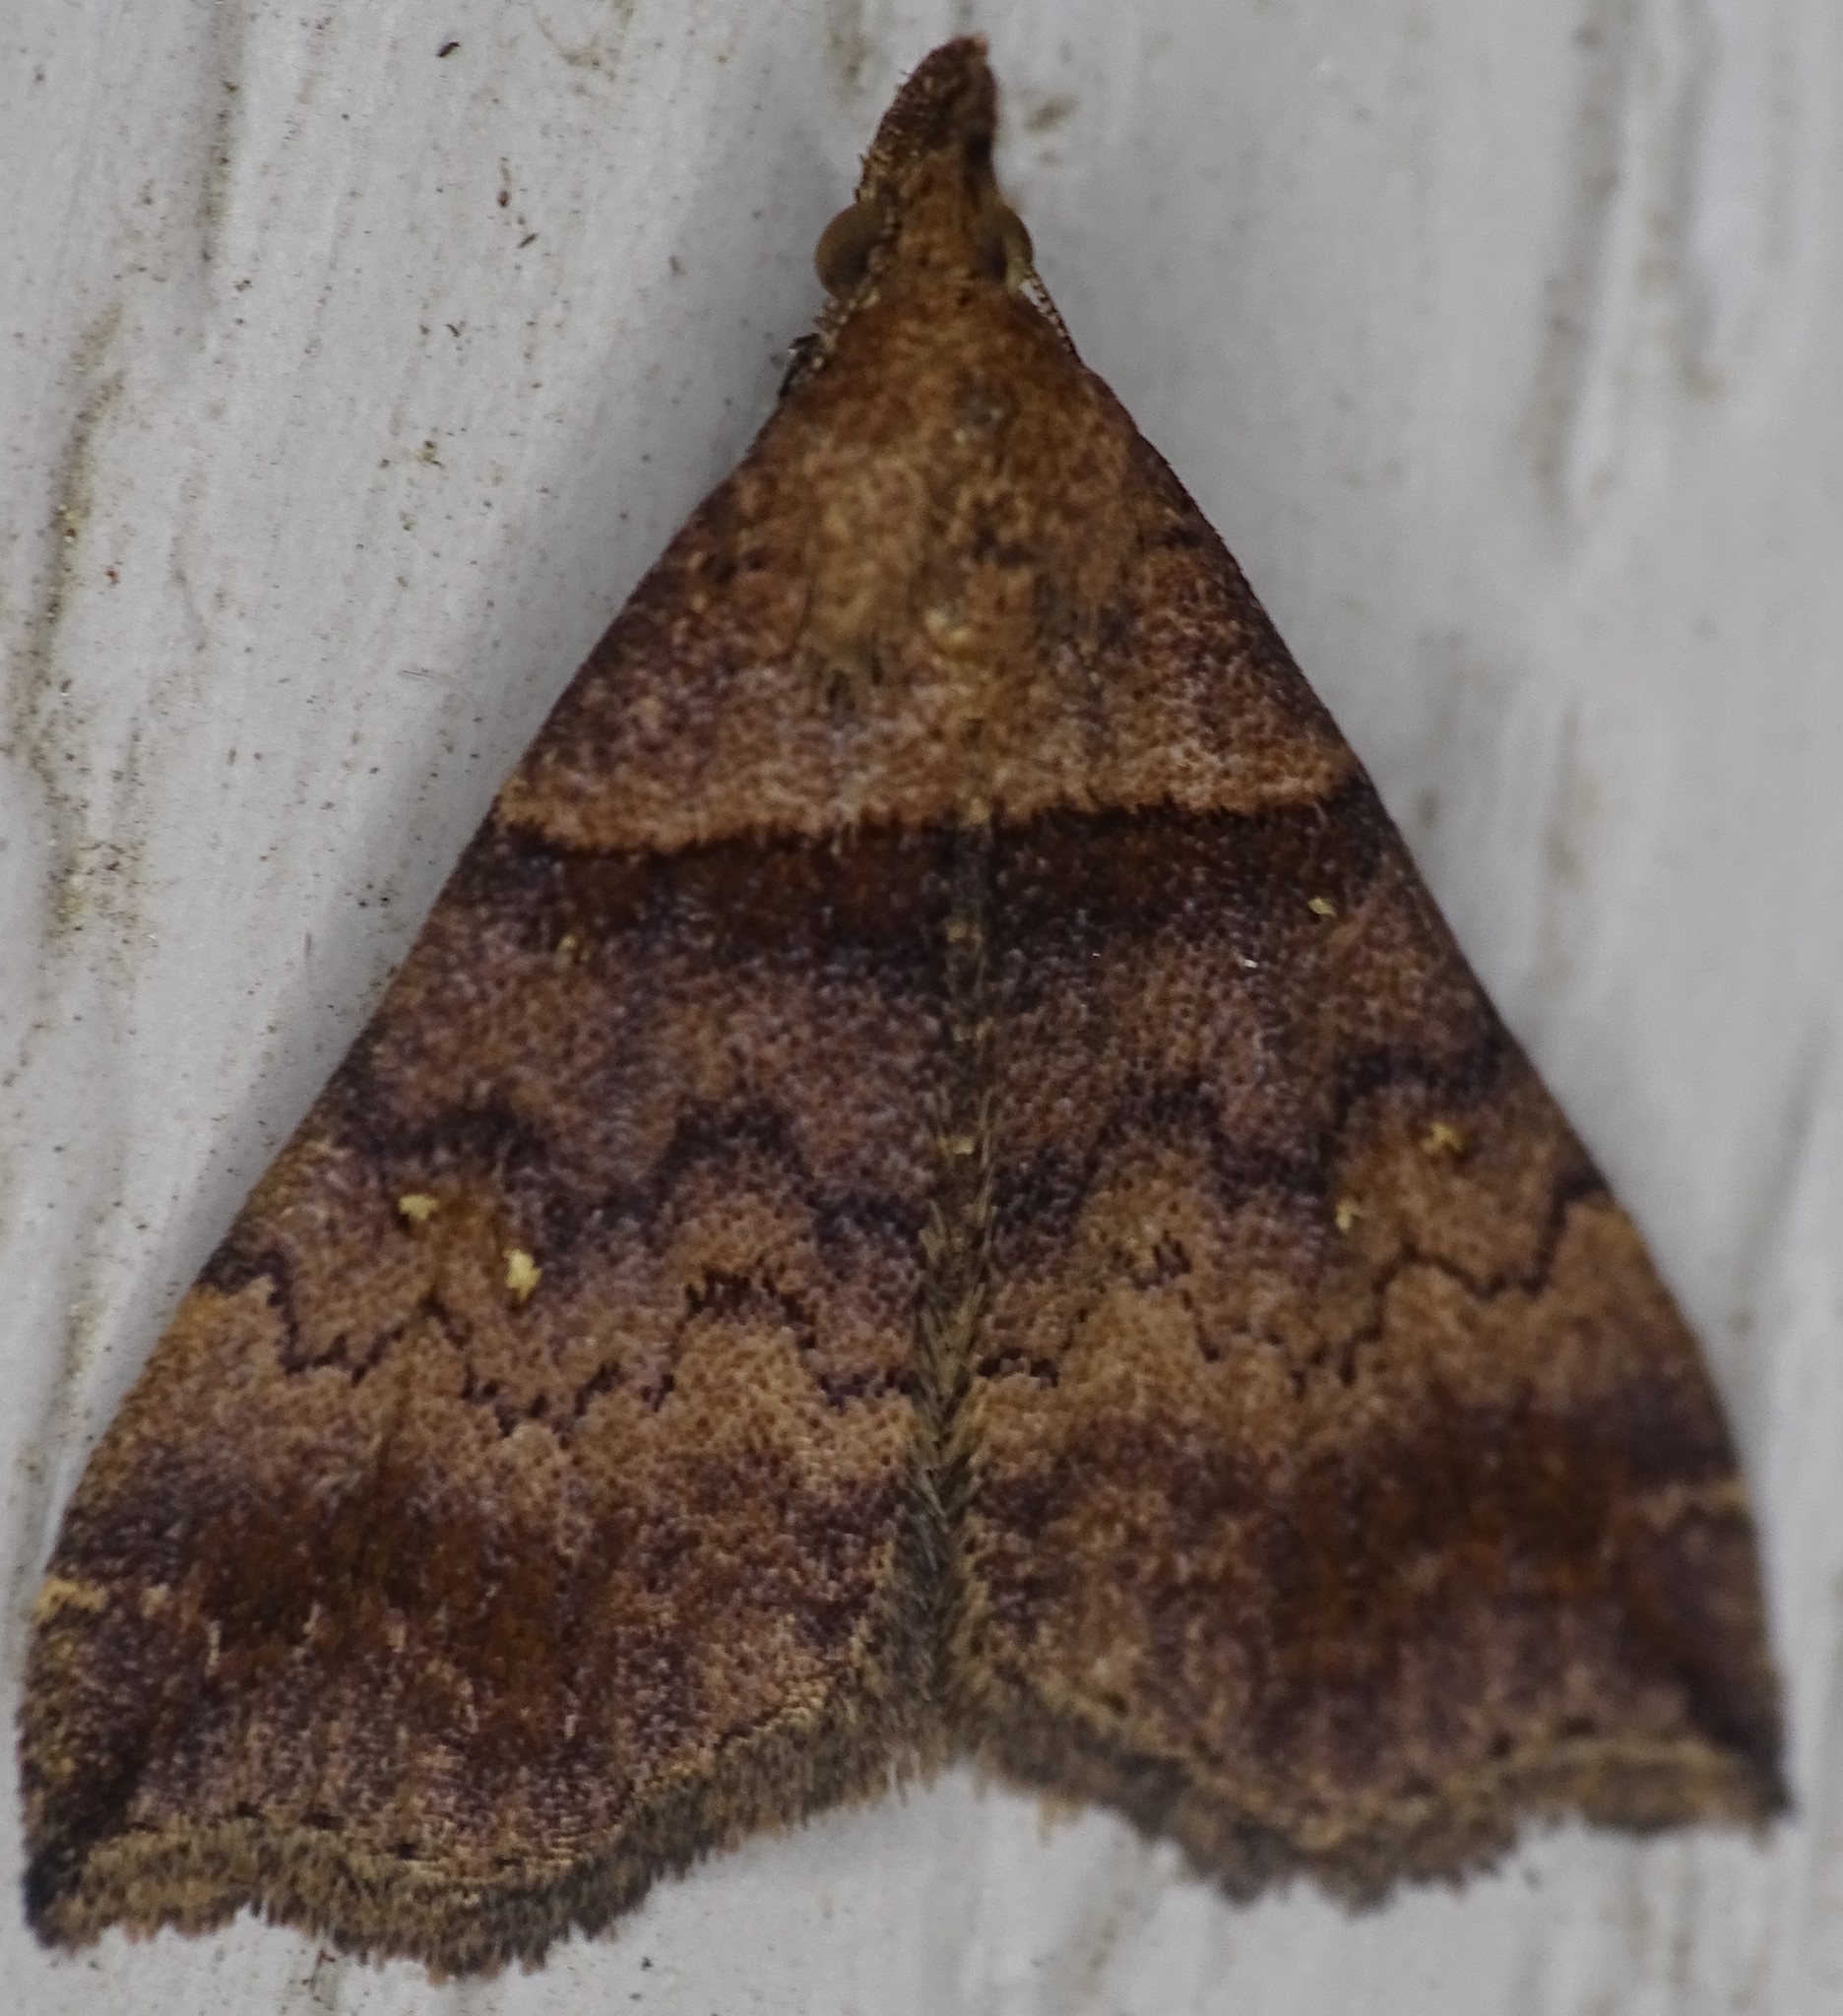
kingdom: Animalia
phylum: Arthropoda
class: Insecta
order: Lepidoptera
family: Erebidae
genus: Lascoria
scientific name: Lascoria ambigualis
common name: Ambiguous moth
